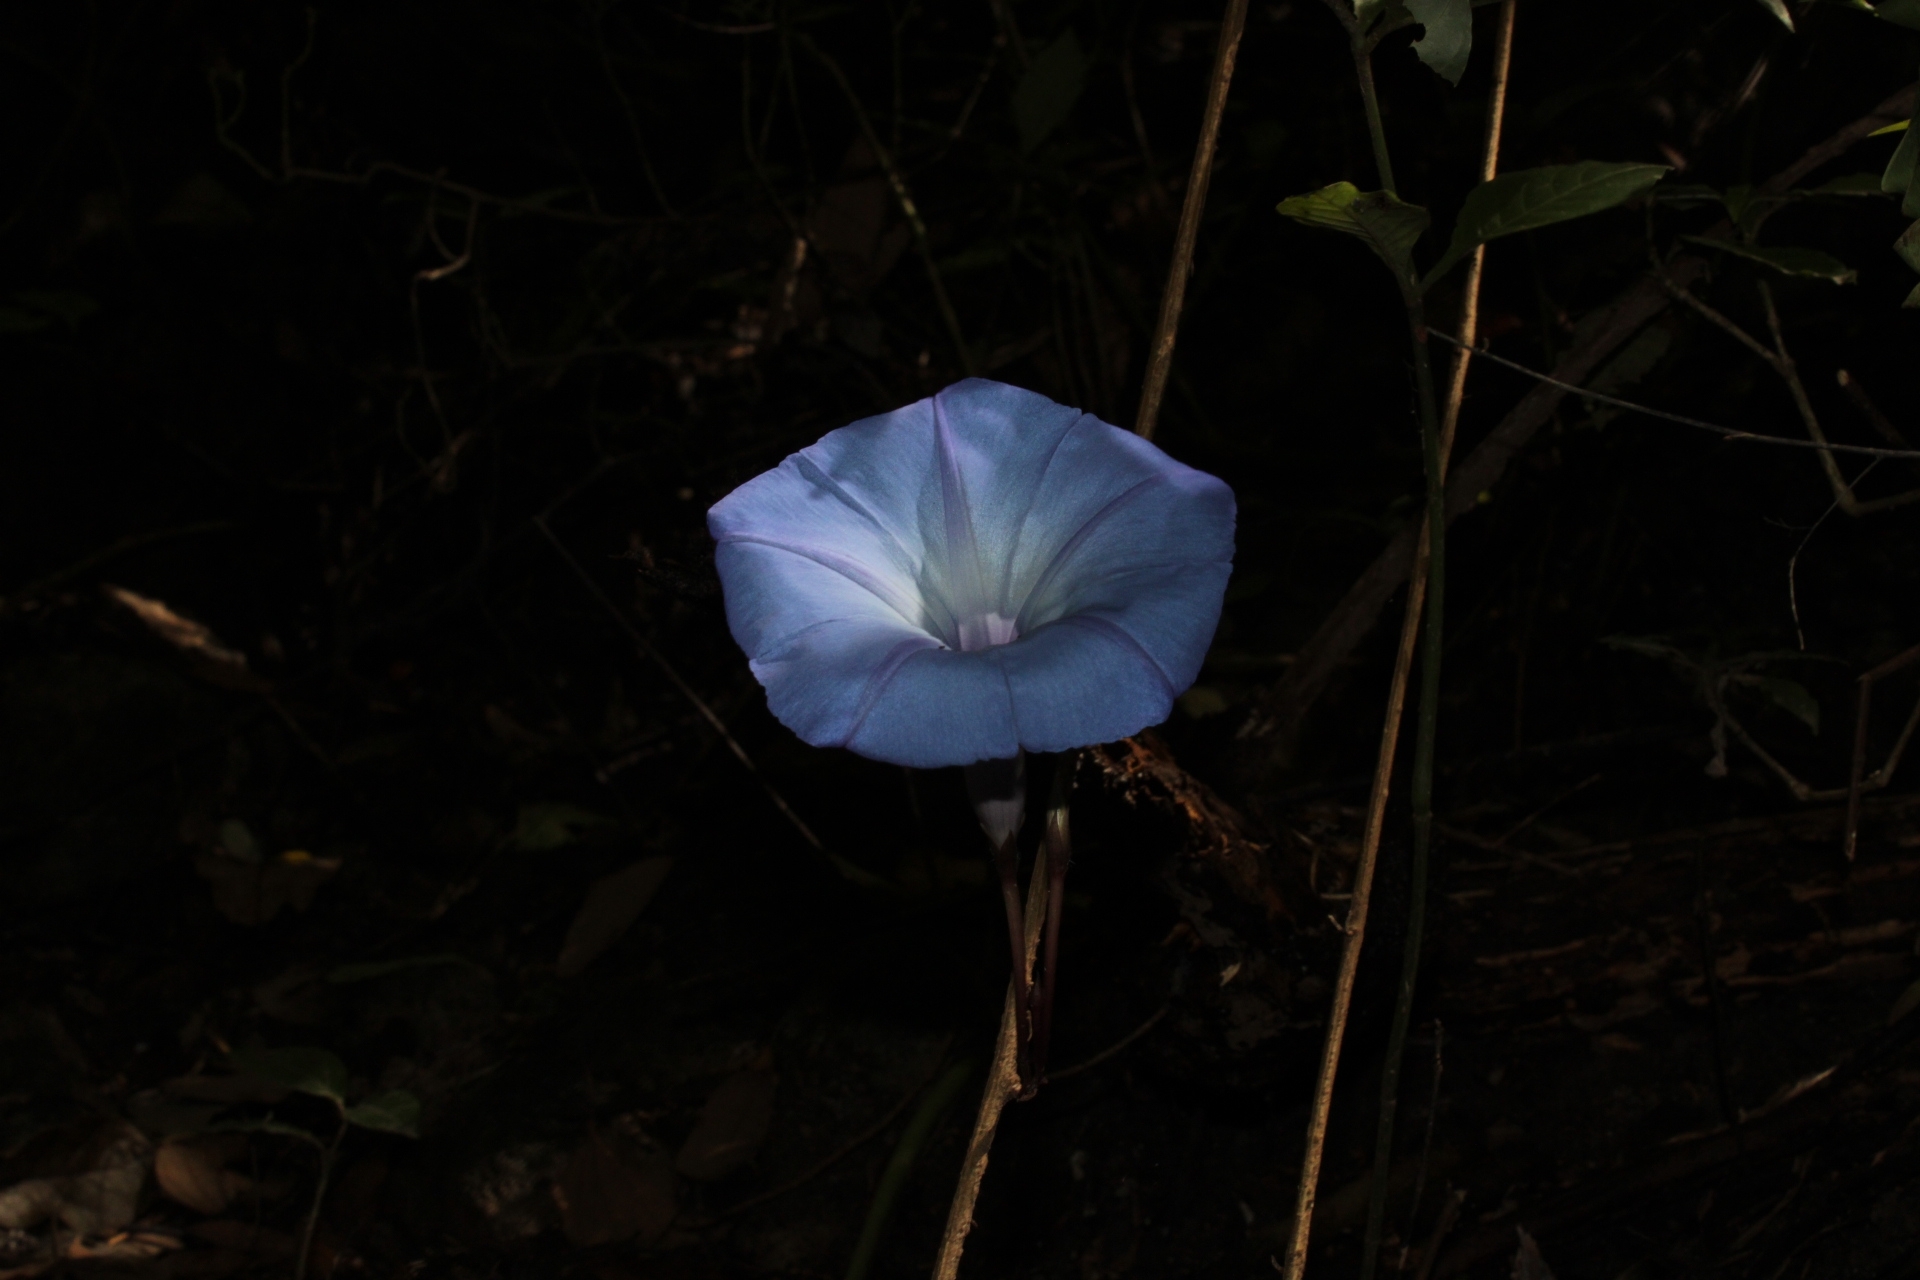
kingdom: Plantae
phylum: Tracheophyta
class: Magnoliopsida
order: Solanales
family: Convolvulaceae
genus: Ipomoea
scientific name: Ipomoea regnellii
